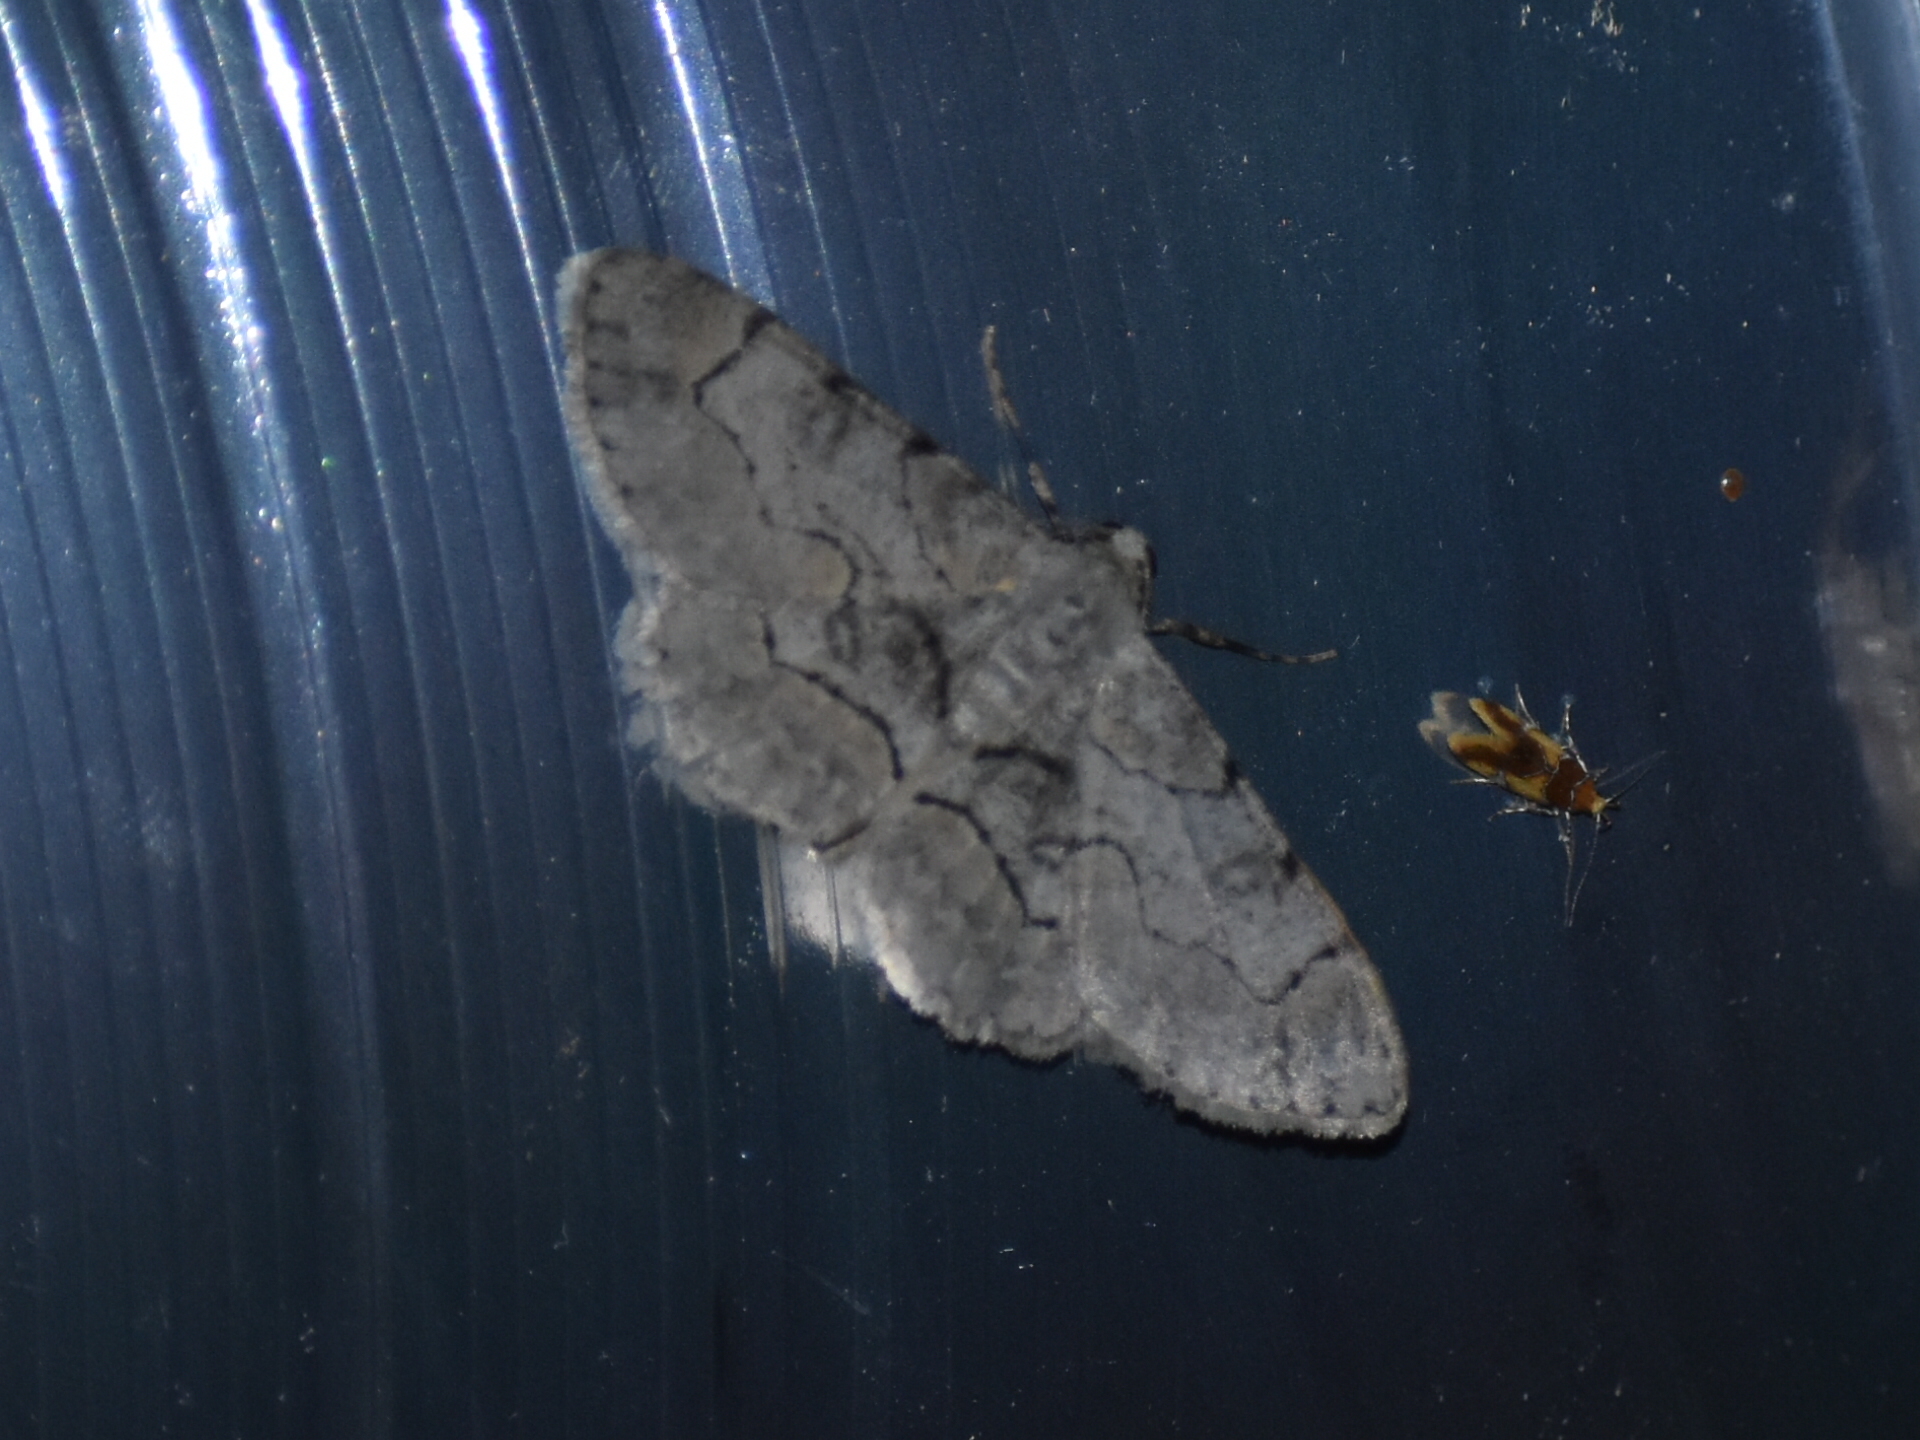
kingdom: Animalia
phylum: Arthropoda
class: Insecta
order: Lepidoptera
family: Geometridae
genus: Iridopsis
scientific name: Iridopsis larvaria
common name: Bent-line gray
